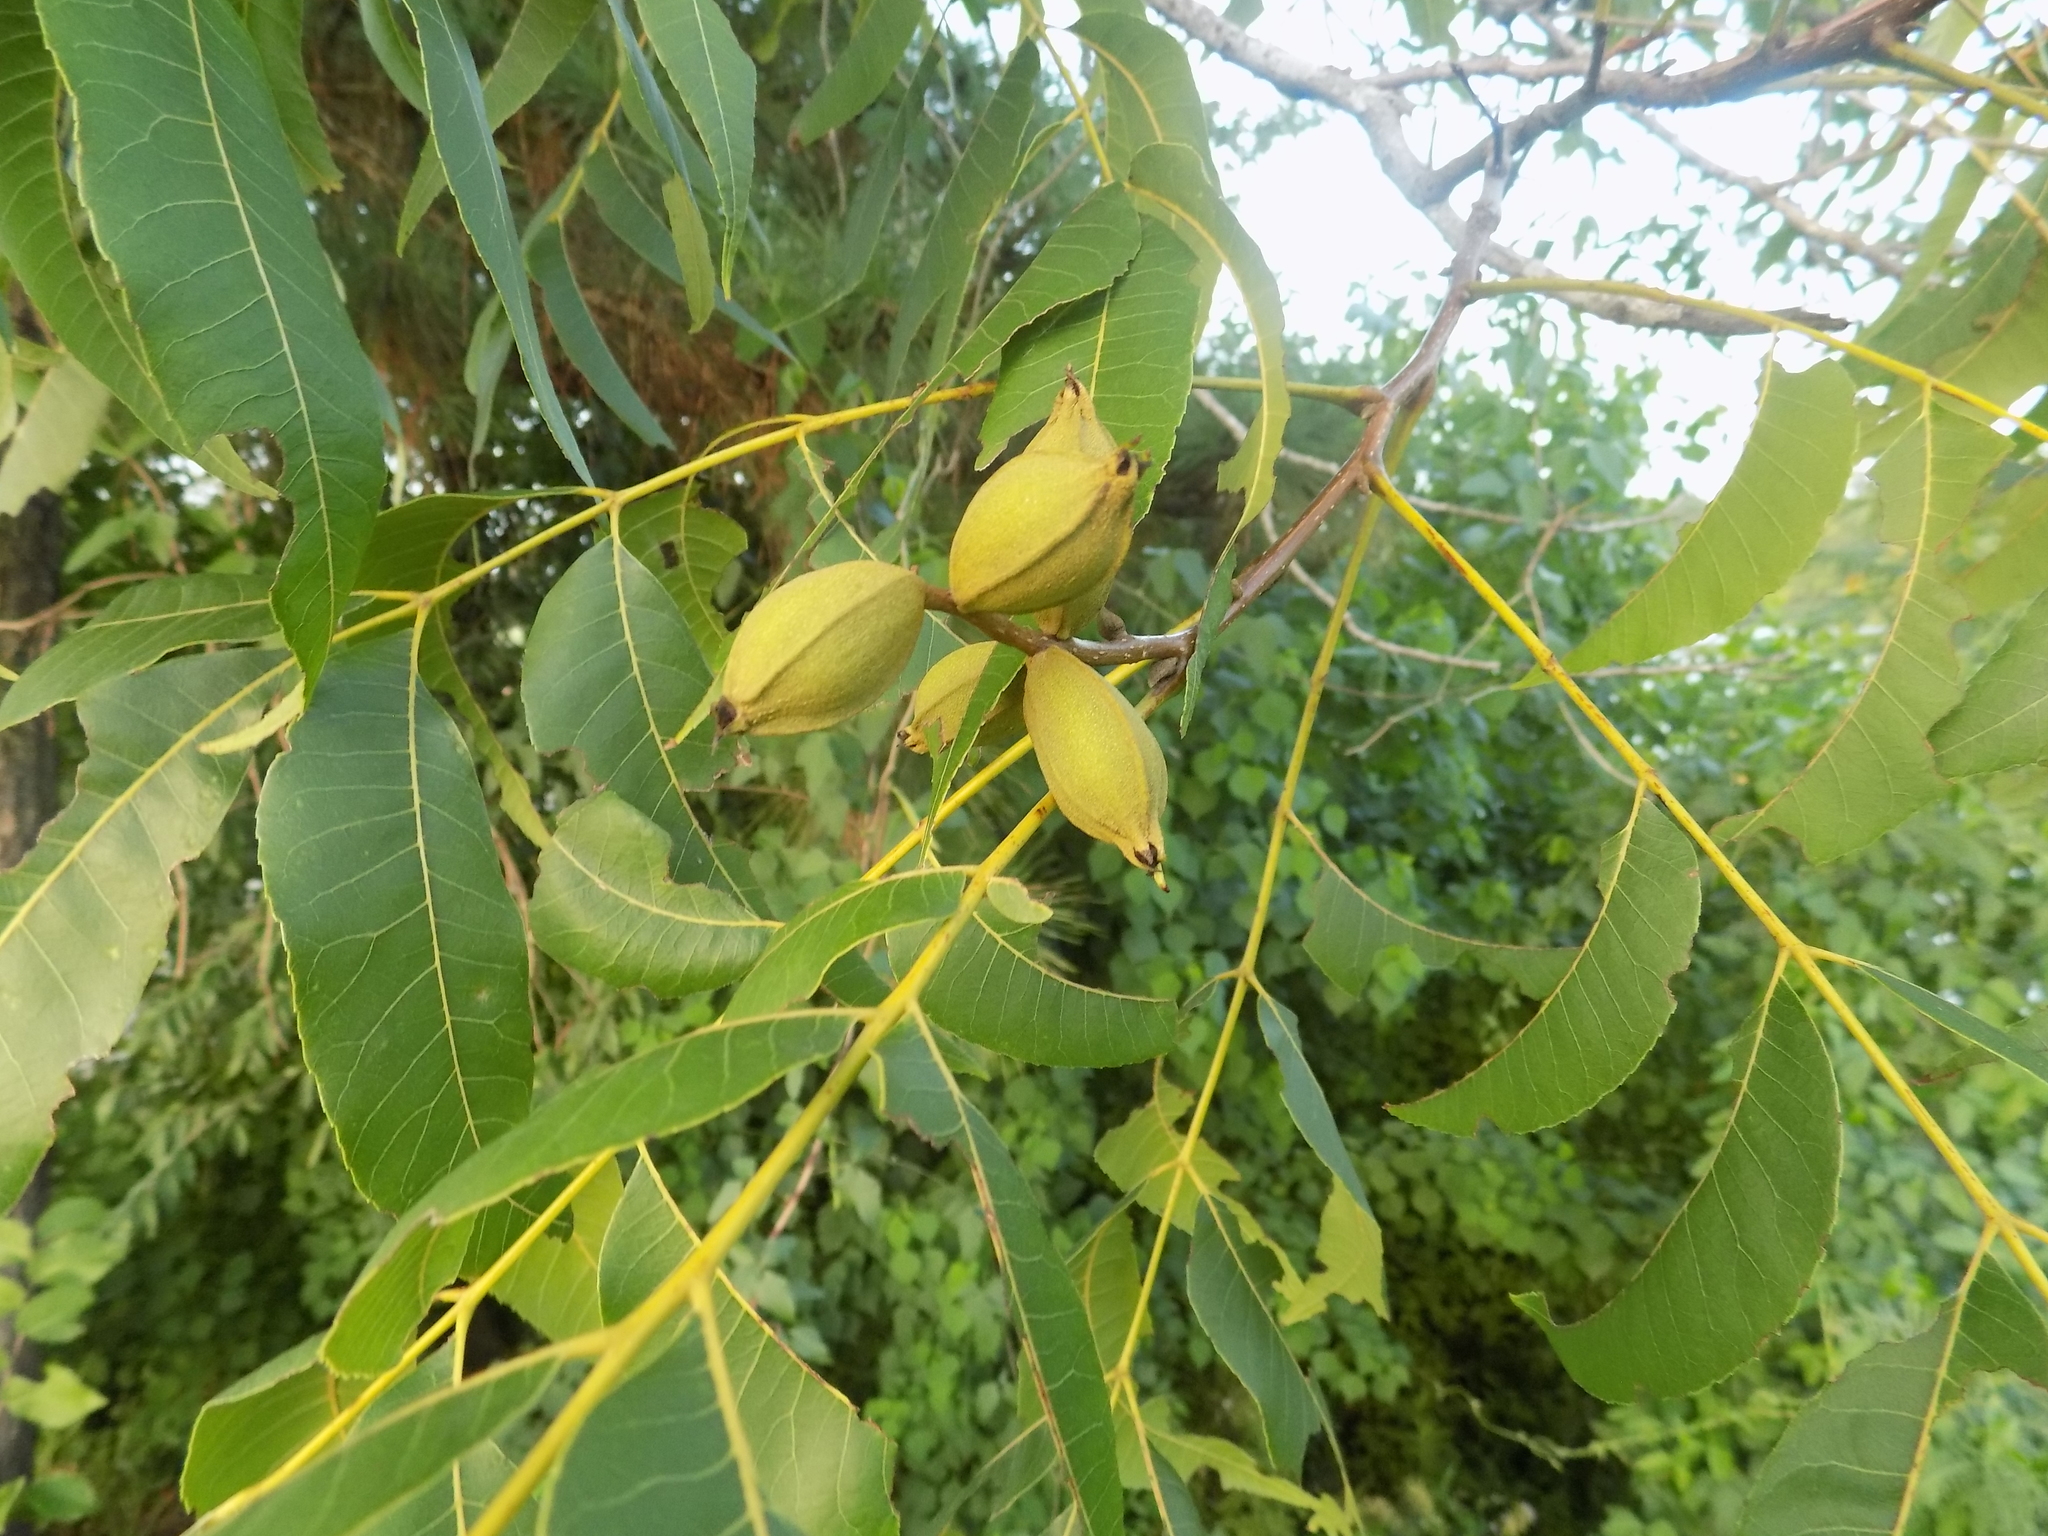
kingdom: Plantae
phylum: Tracheophyta
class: Magnoliopsida
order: Fagales
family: Juglandaceae
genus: Carya
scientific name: Carya illinoinensis
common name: Pecan
